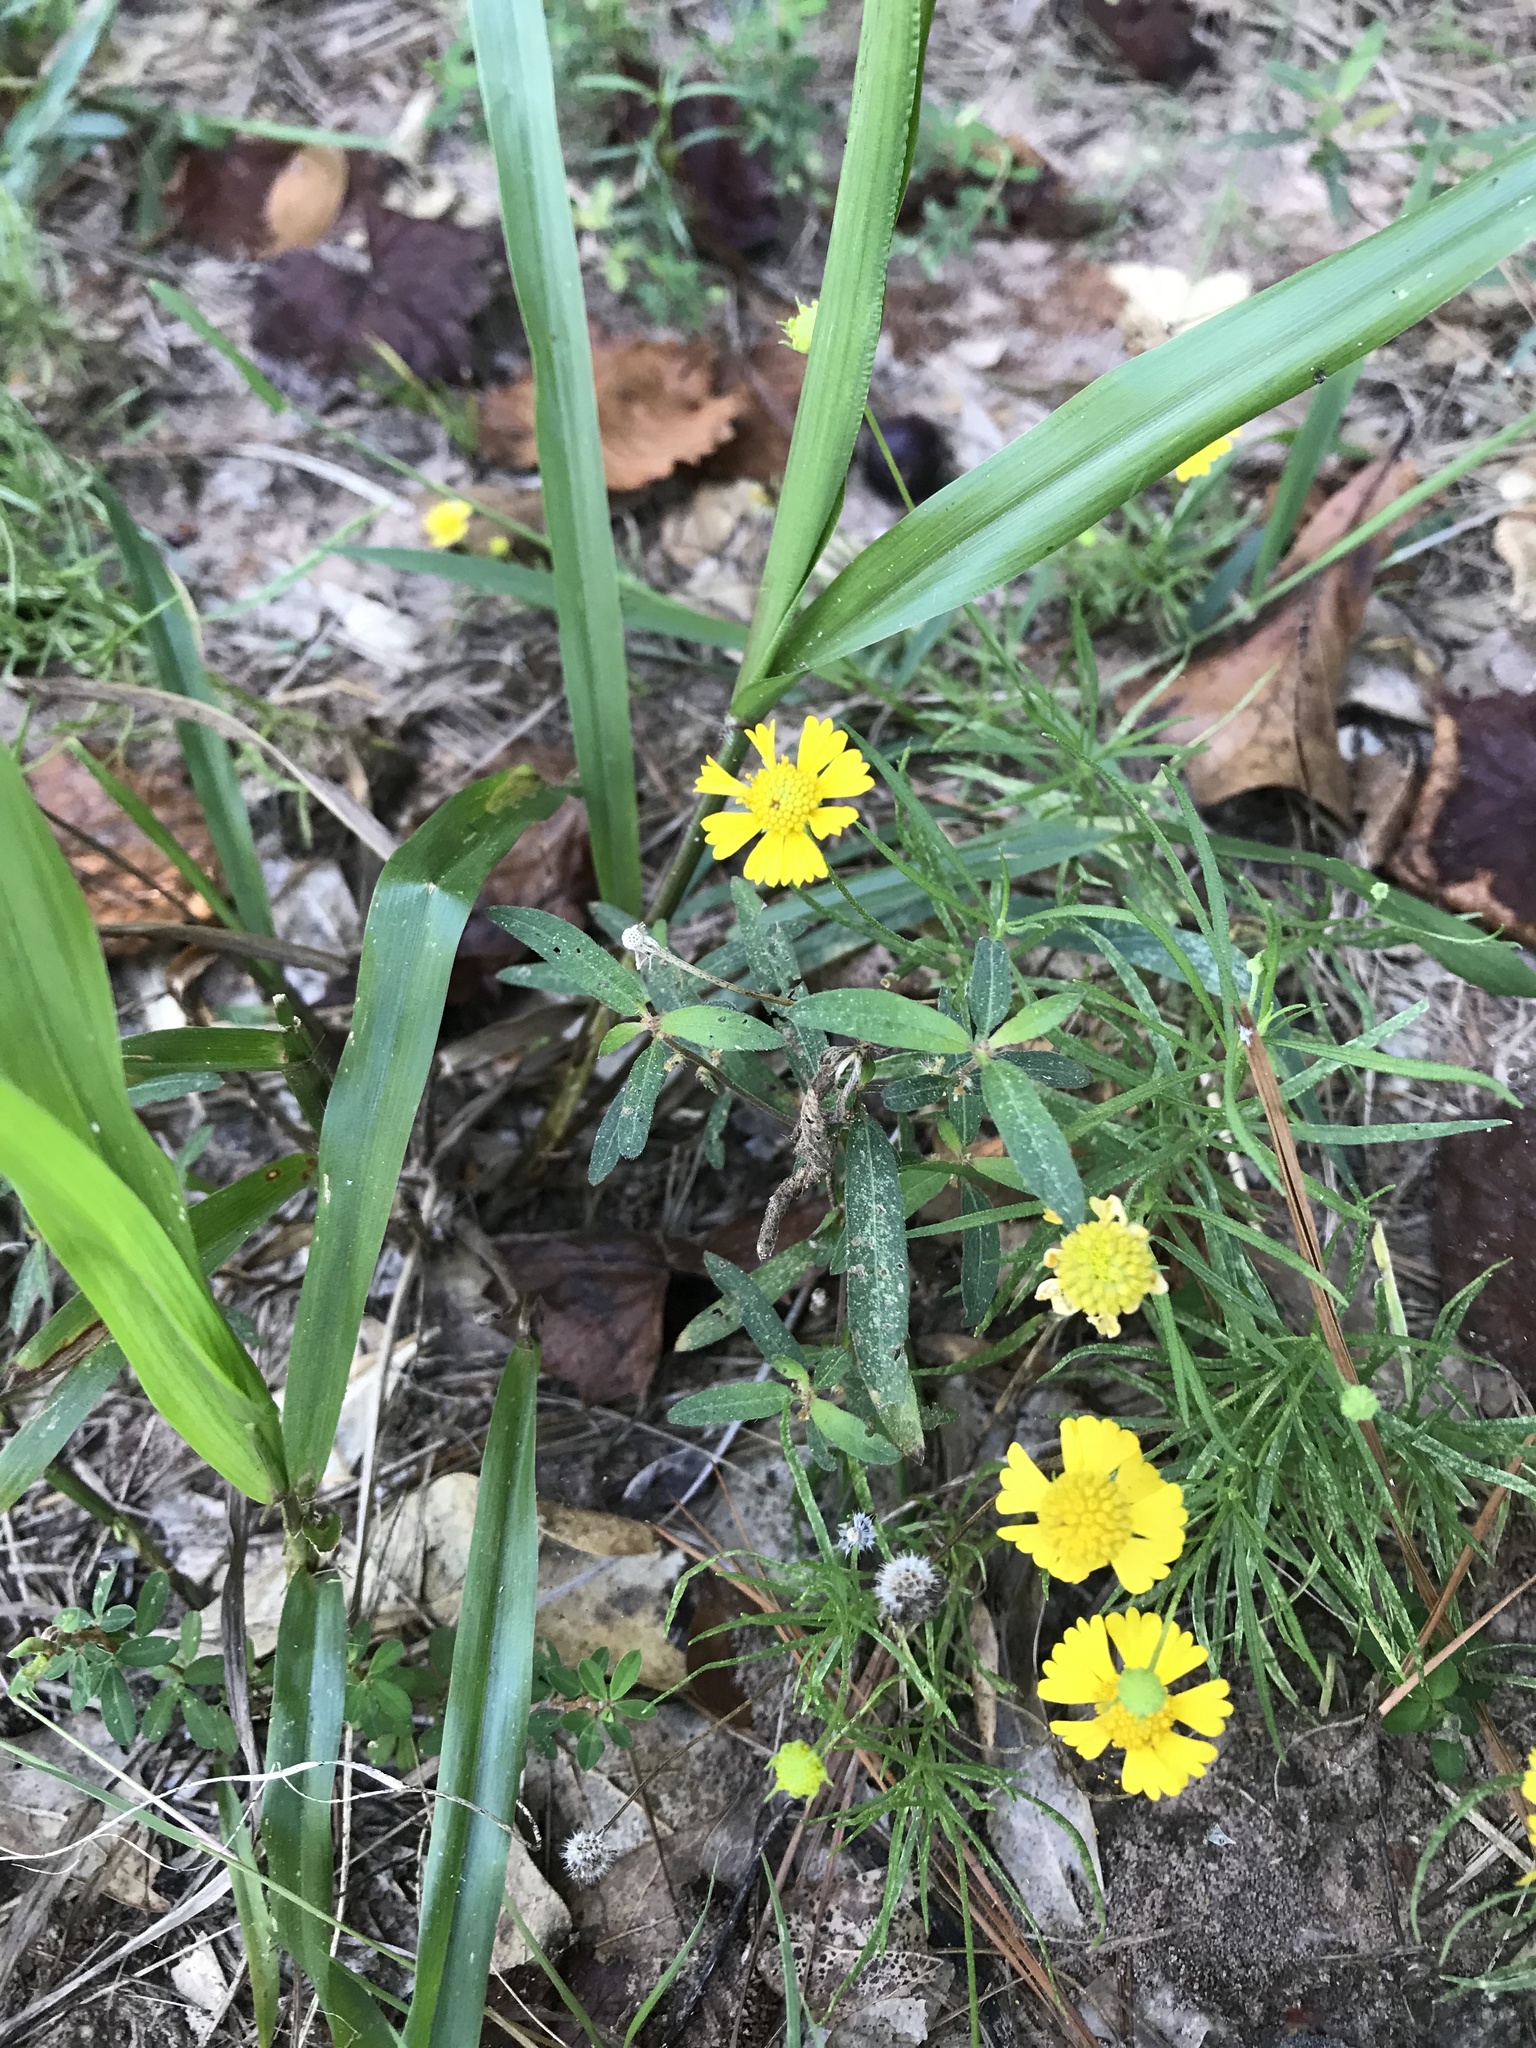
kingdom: Plantae
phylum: Tracheophyta
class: Magnoliopsida
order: Asterales
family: Asteraceae
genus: Helenium
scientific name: Helenium amarum
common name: Bitter sneezeweed
